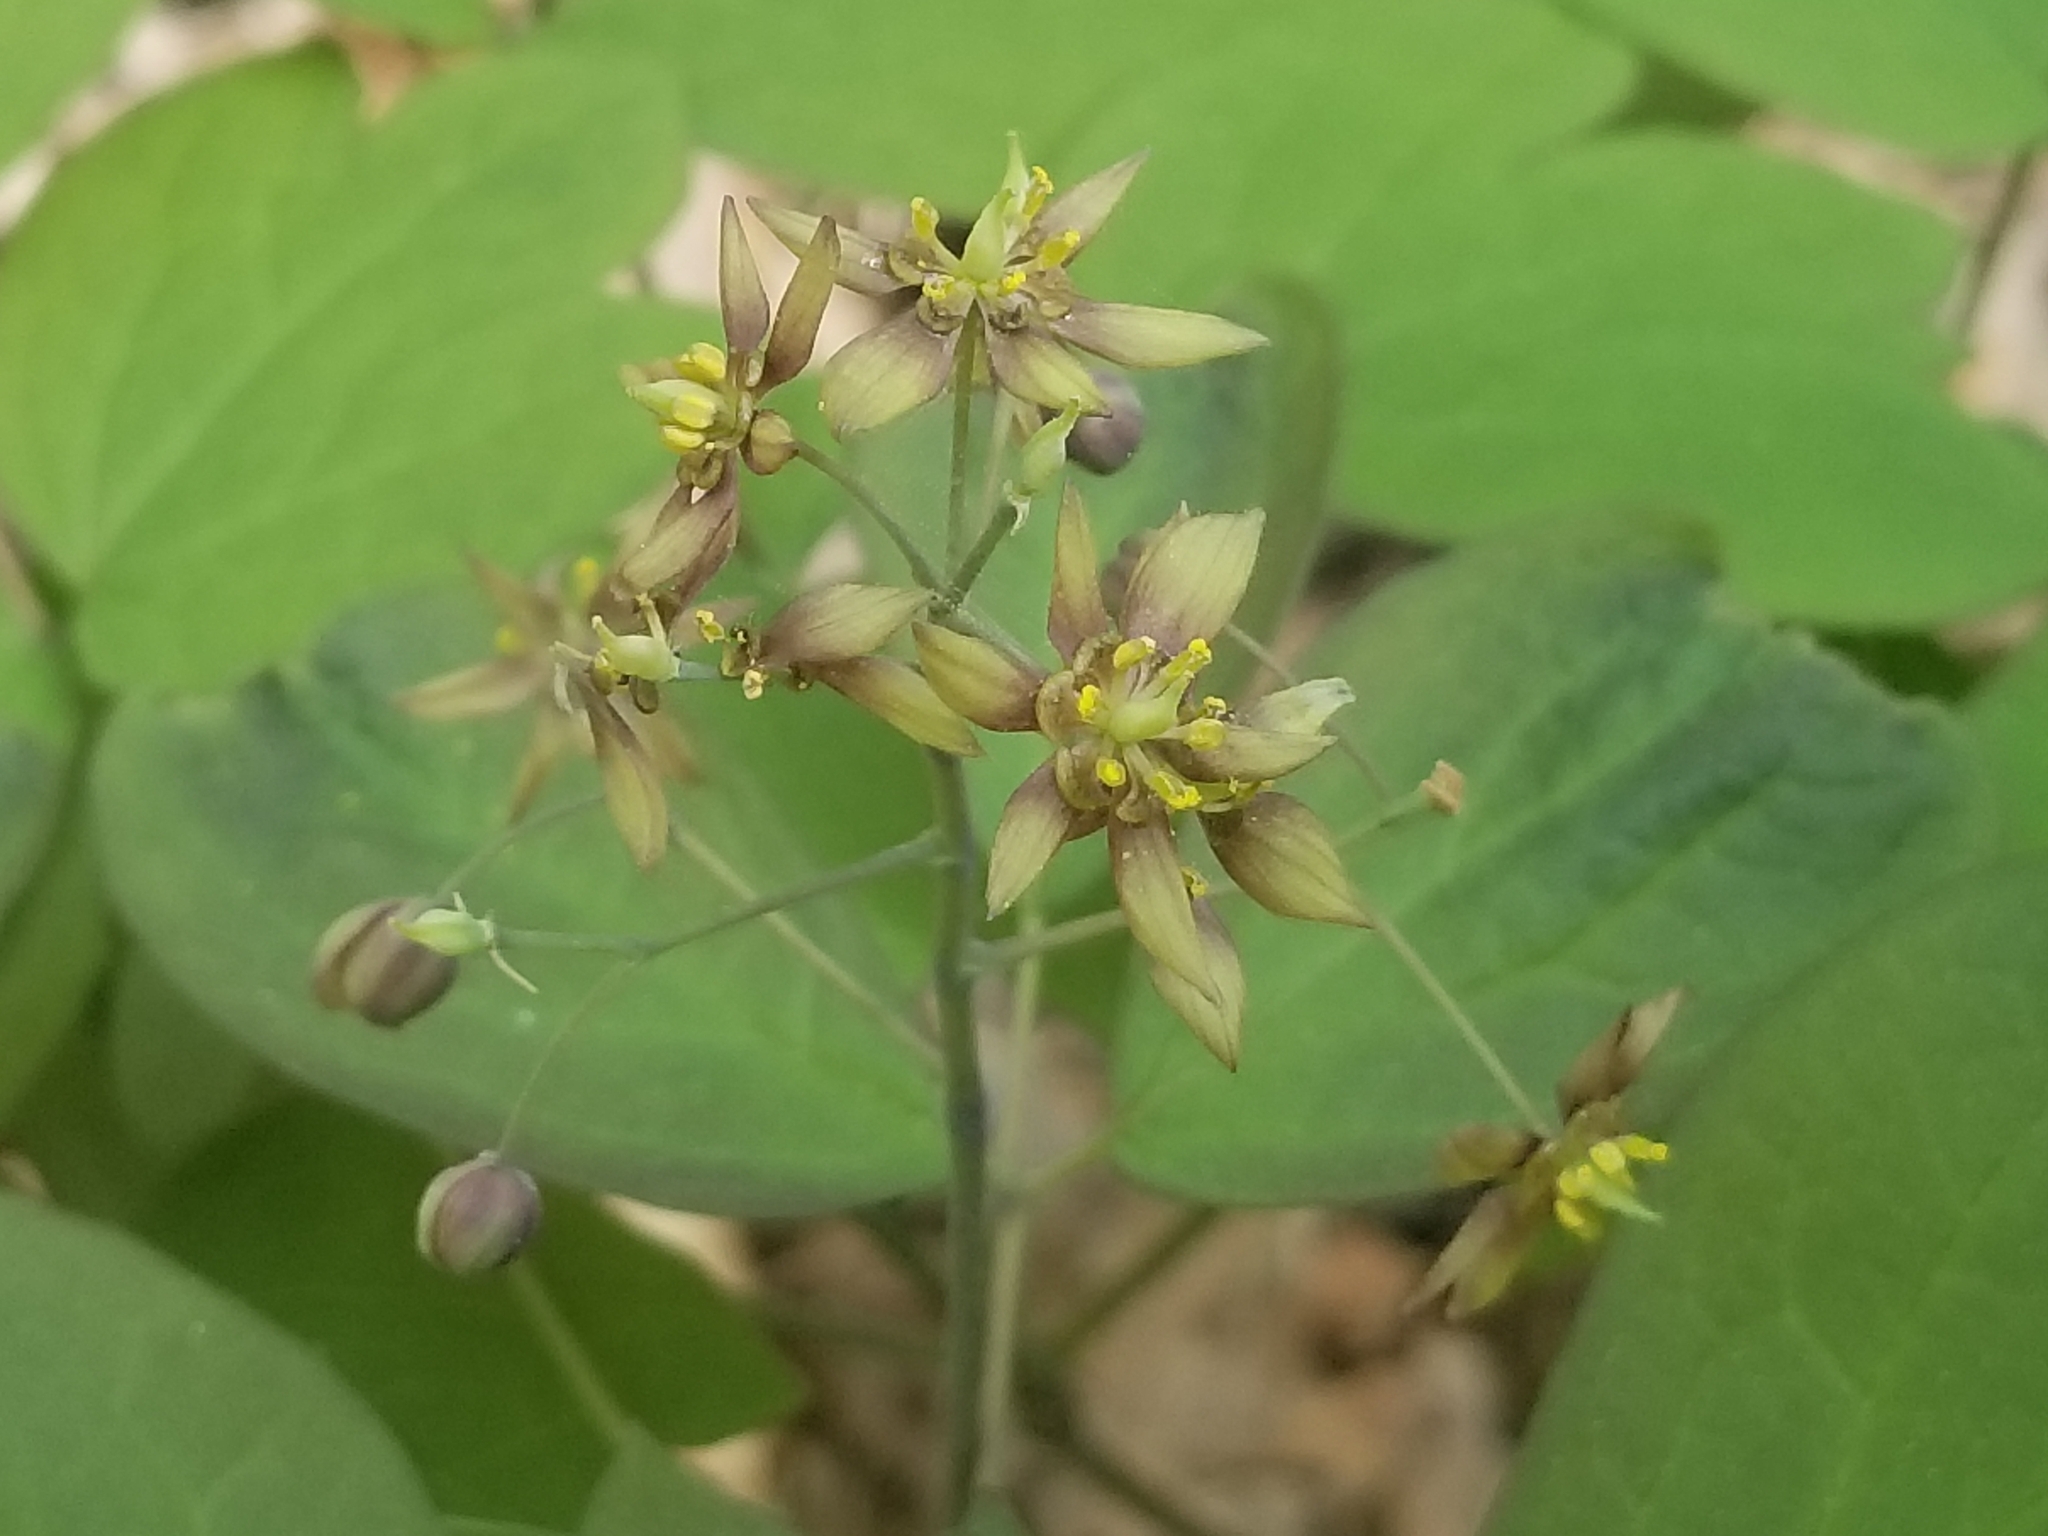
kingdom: Plantae
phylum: Tracheophyta
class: Magnoliopsida
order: Ranunculales
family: Berberidaceae
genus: Caulophyllum
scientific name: Caulophyllum thalictroides
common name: Blue cohosh
